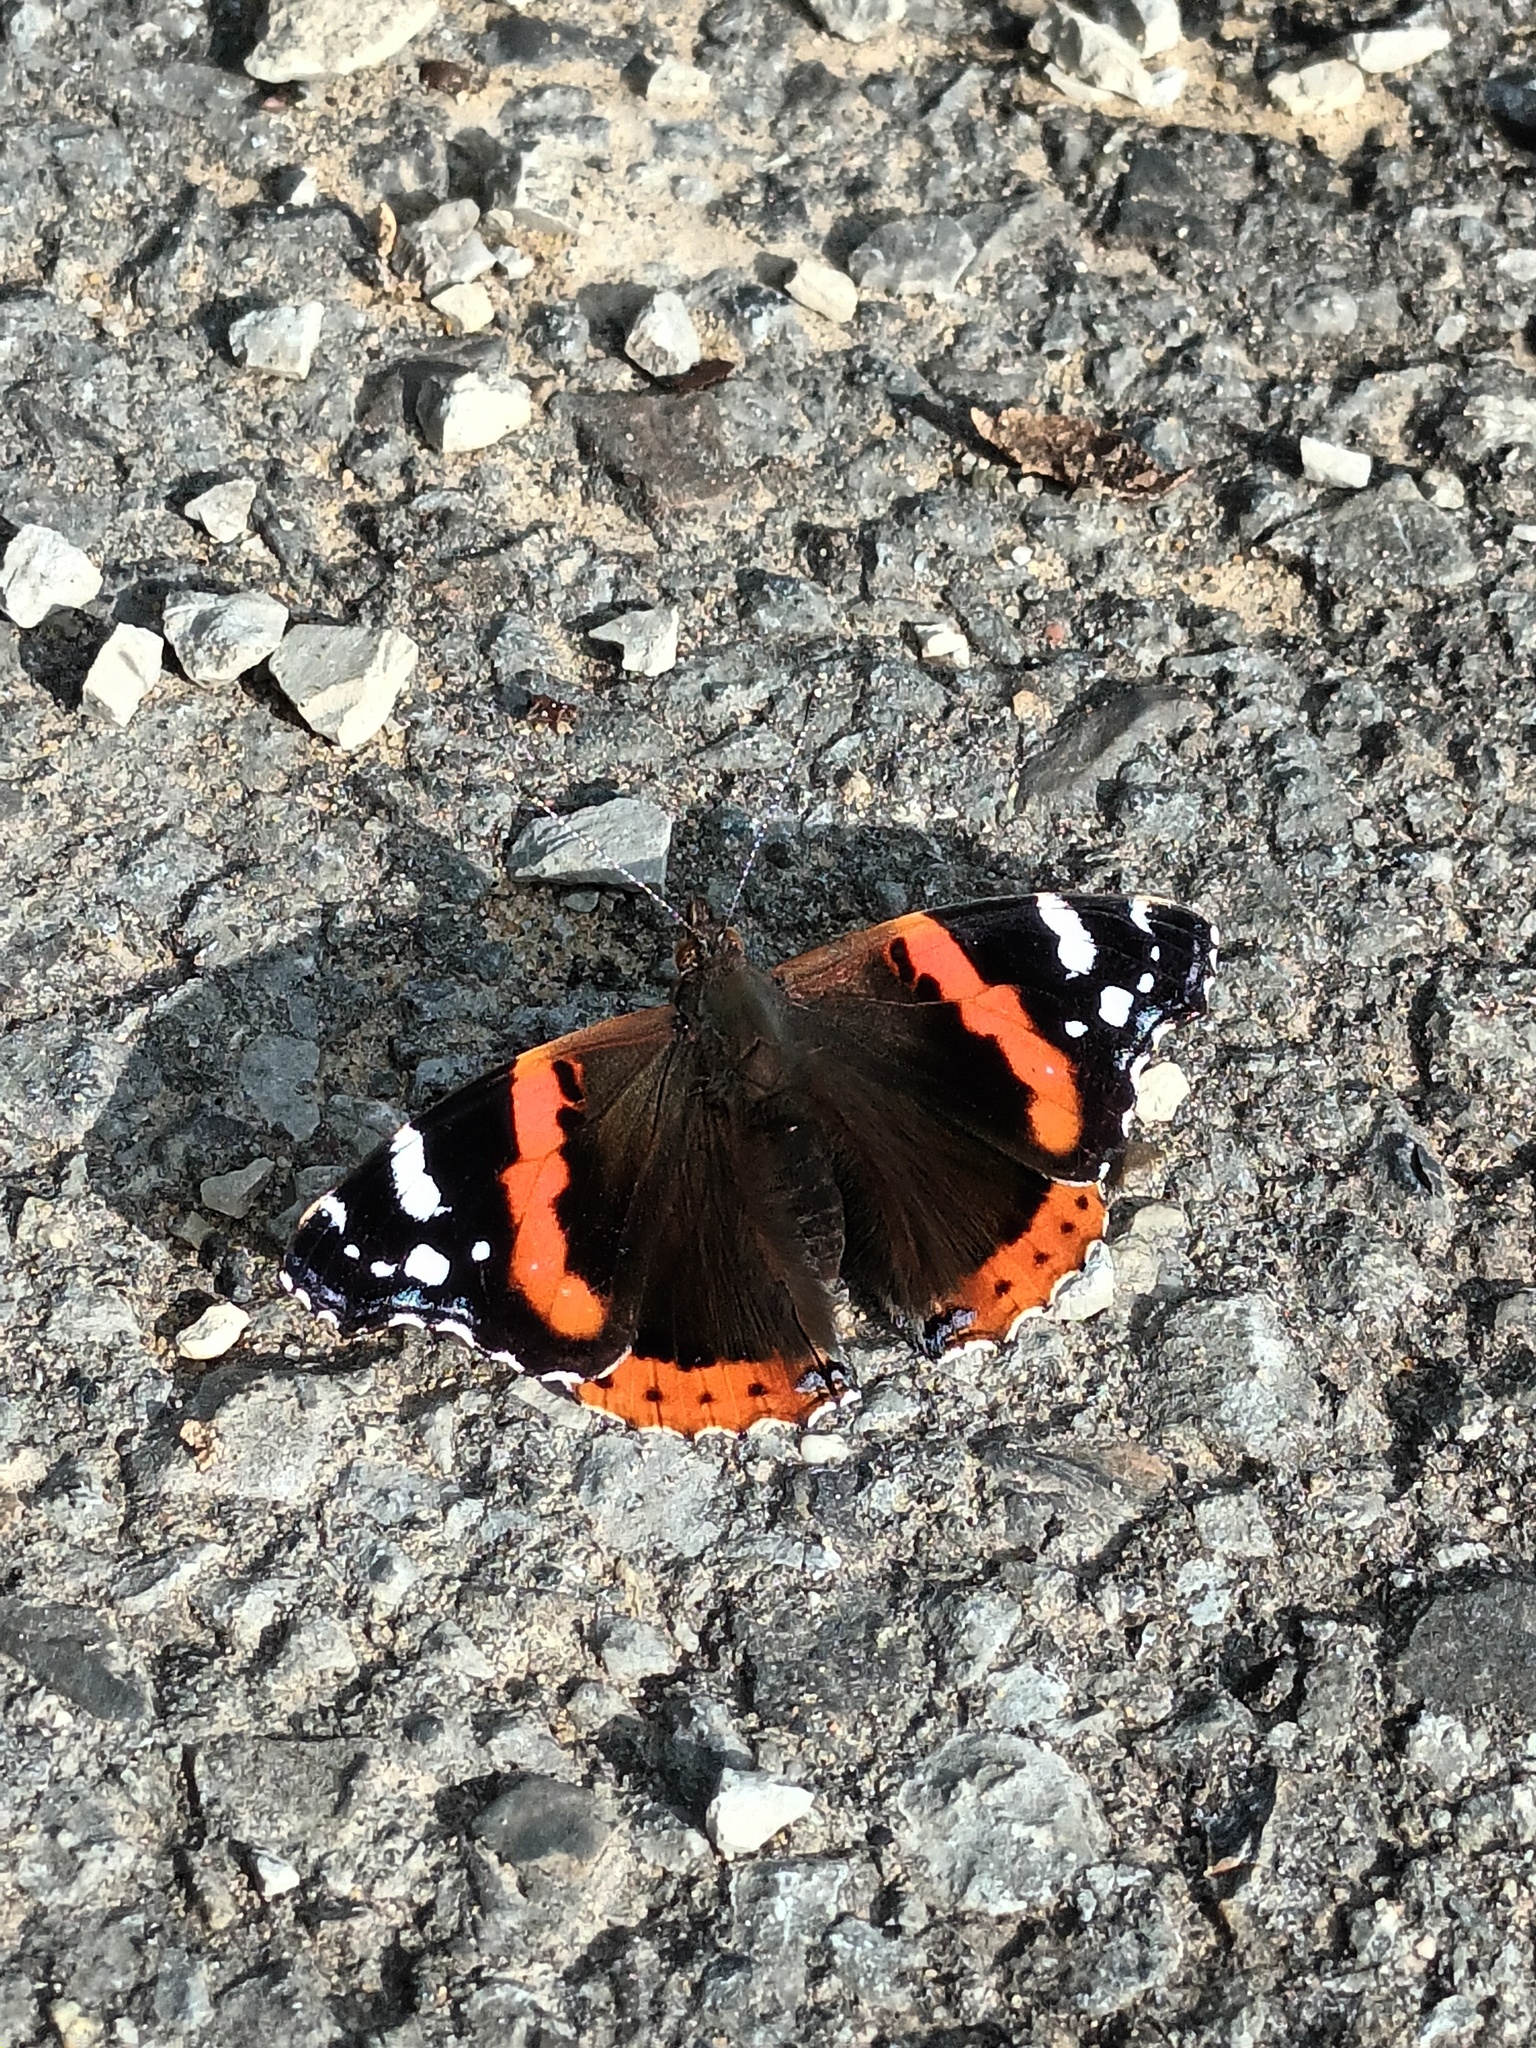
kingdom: Animalia
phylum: Arthropoda
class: Insecta
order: Lepidoptera
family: Nymphalidae
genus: Vanessa
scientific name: Vanessa atalanta
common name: Red admiral
